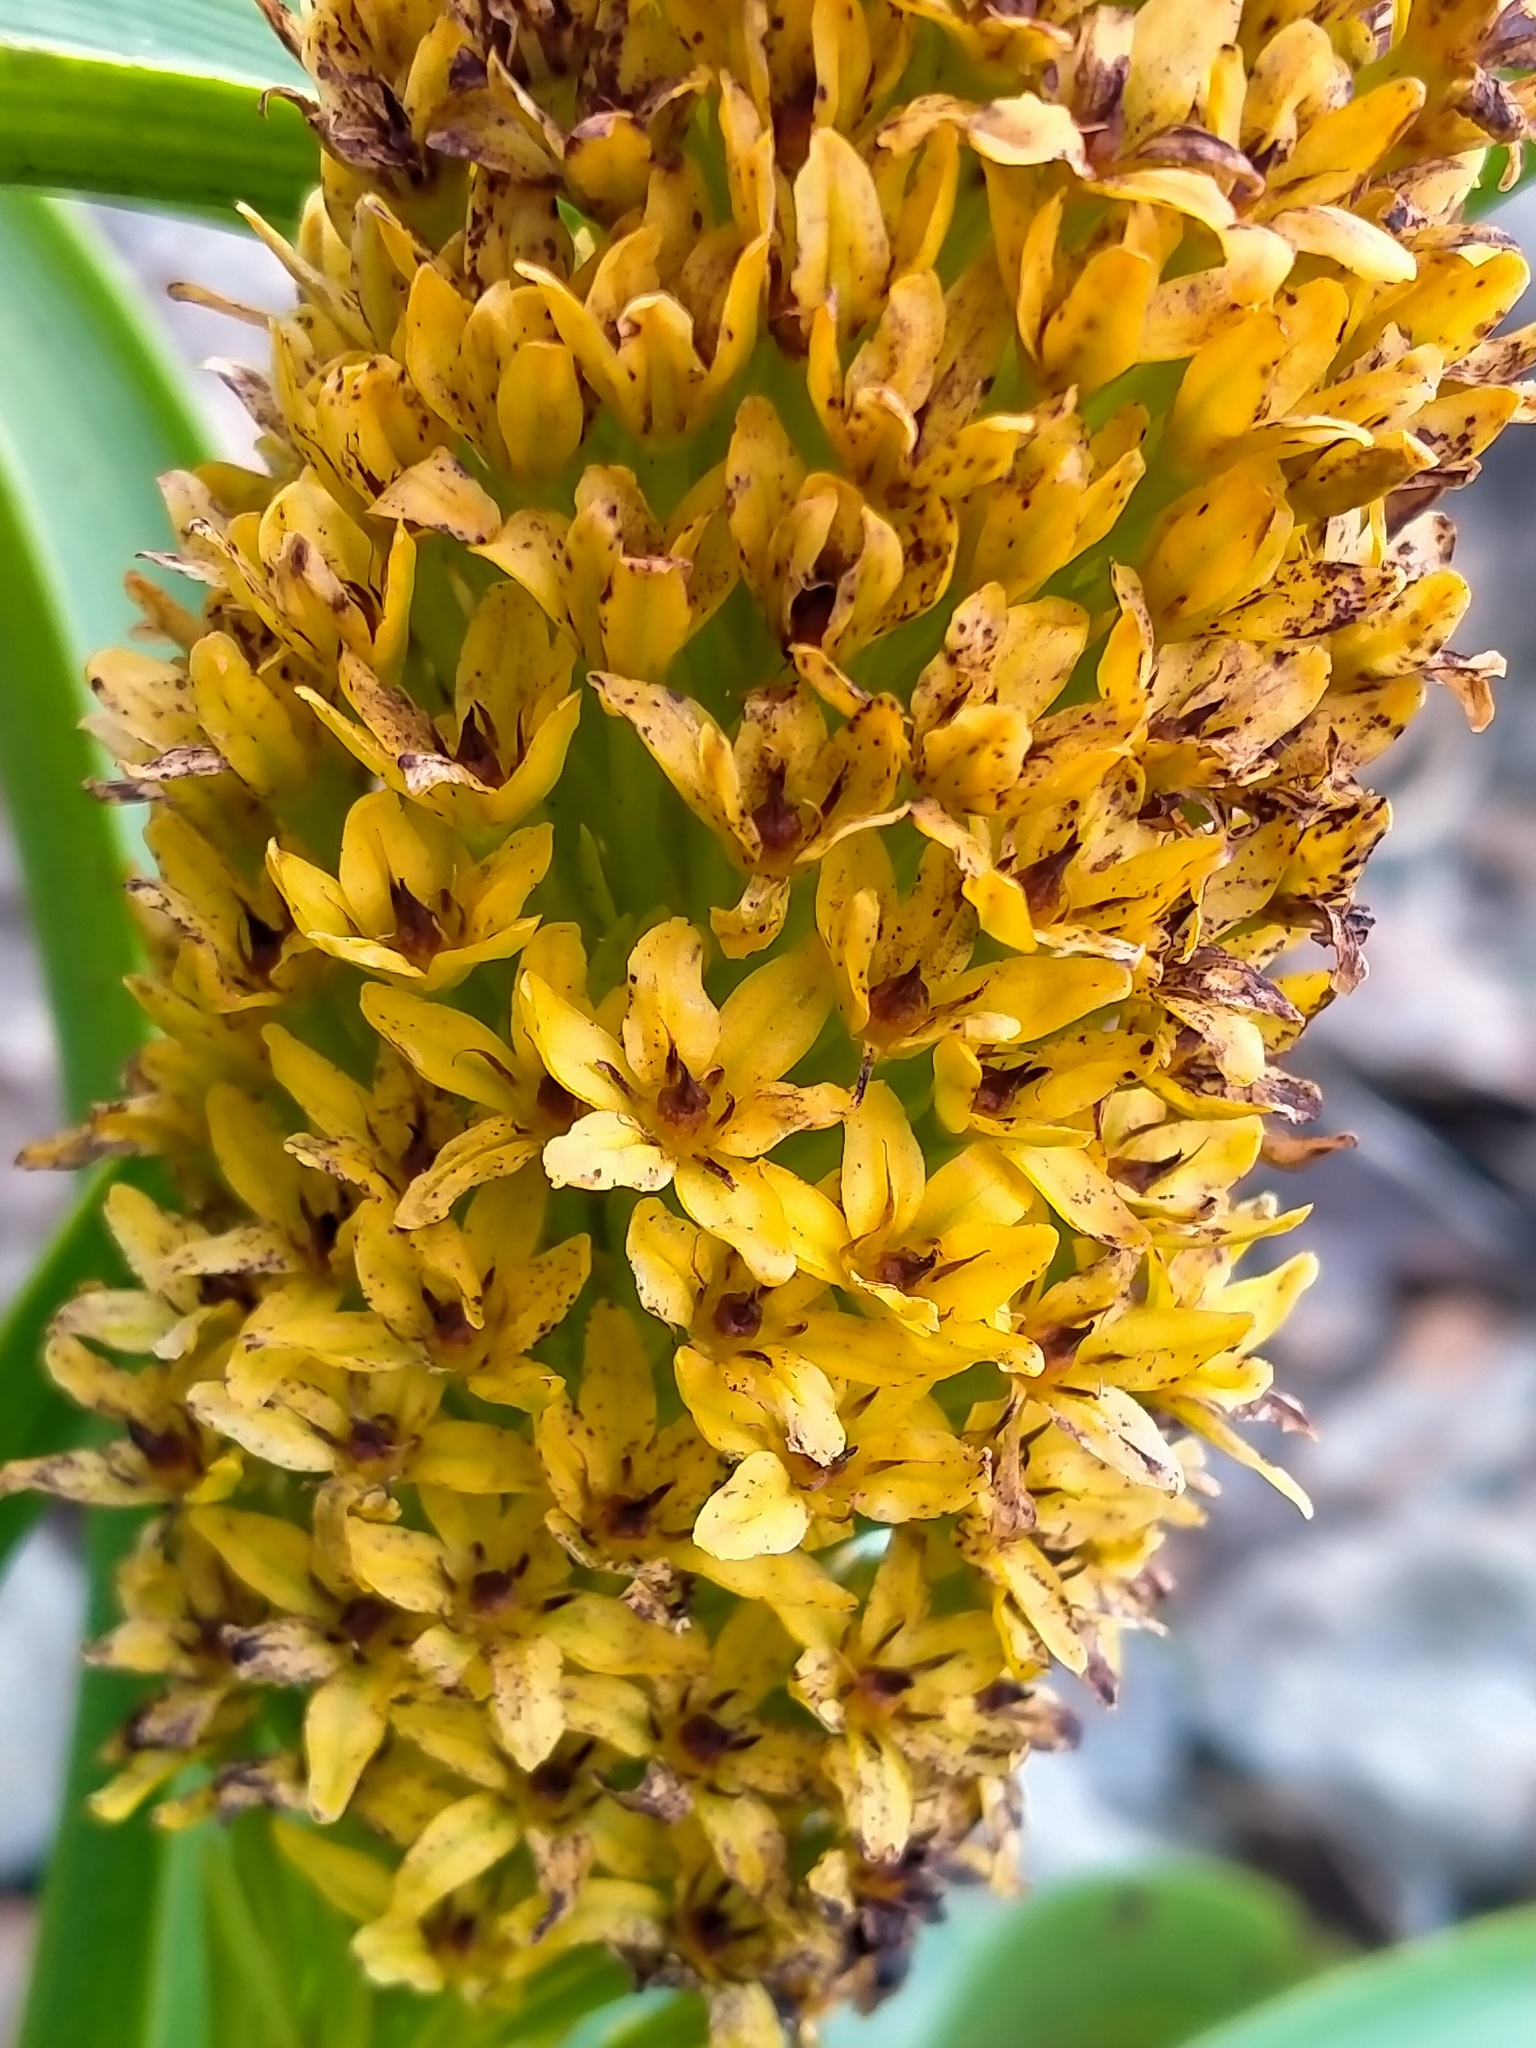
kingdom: Plantae
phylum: Tracheophyta
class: Liliopsida
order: Asparagales
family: Asphodelaceae
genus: Bulbinella
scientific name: Bulbinella rossii
